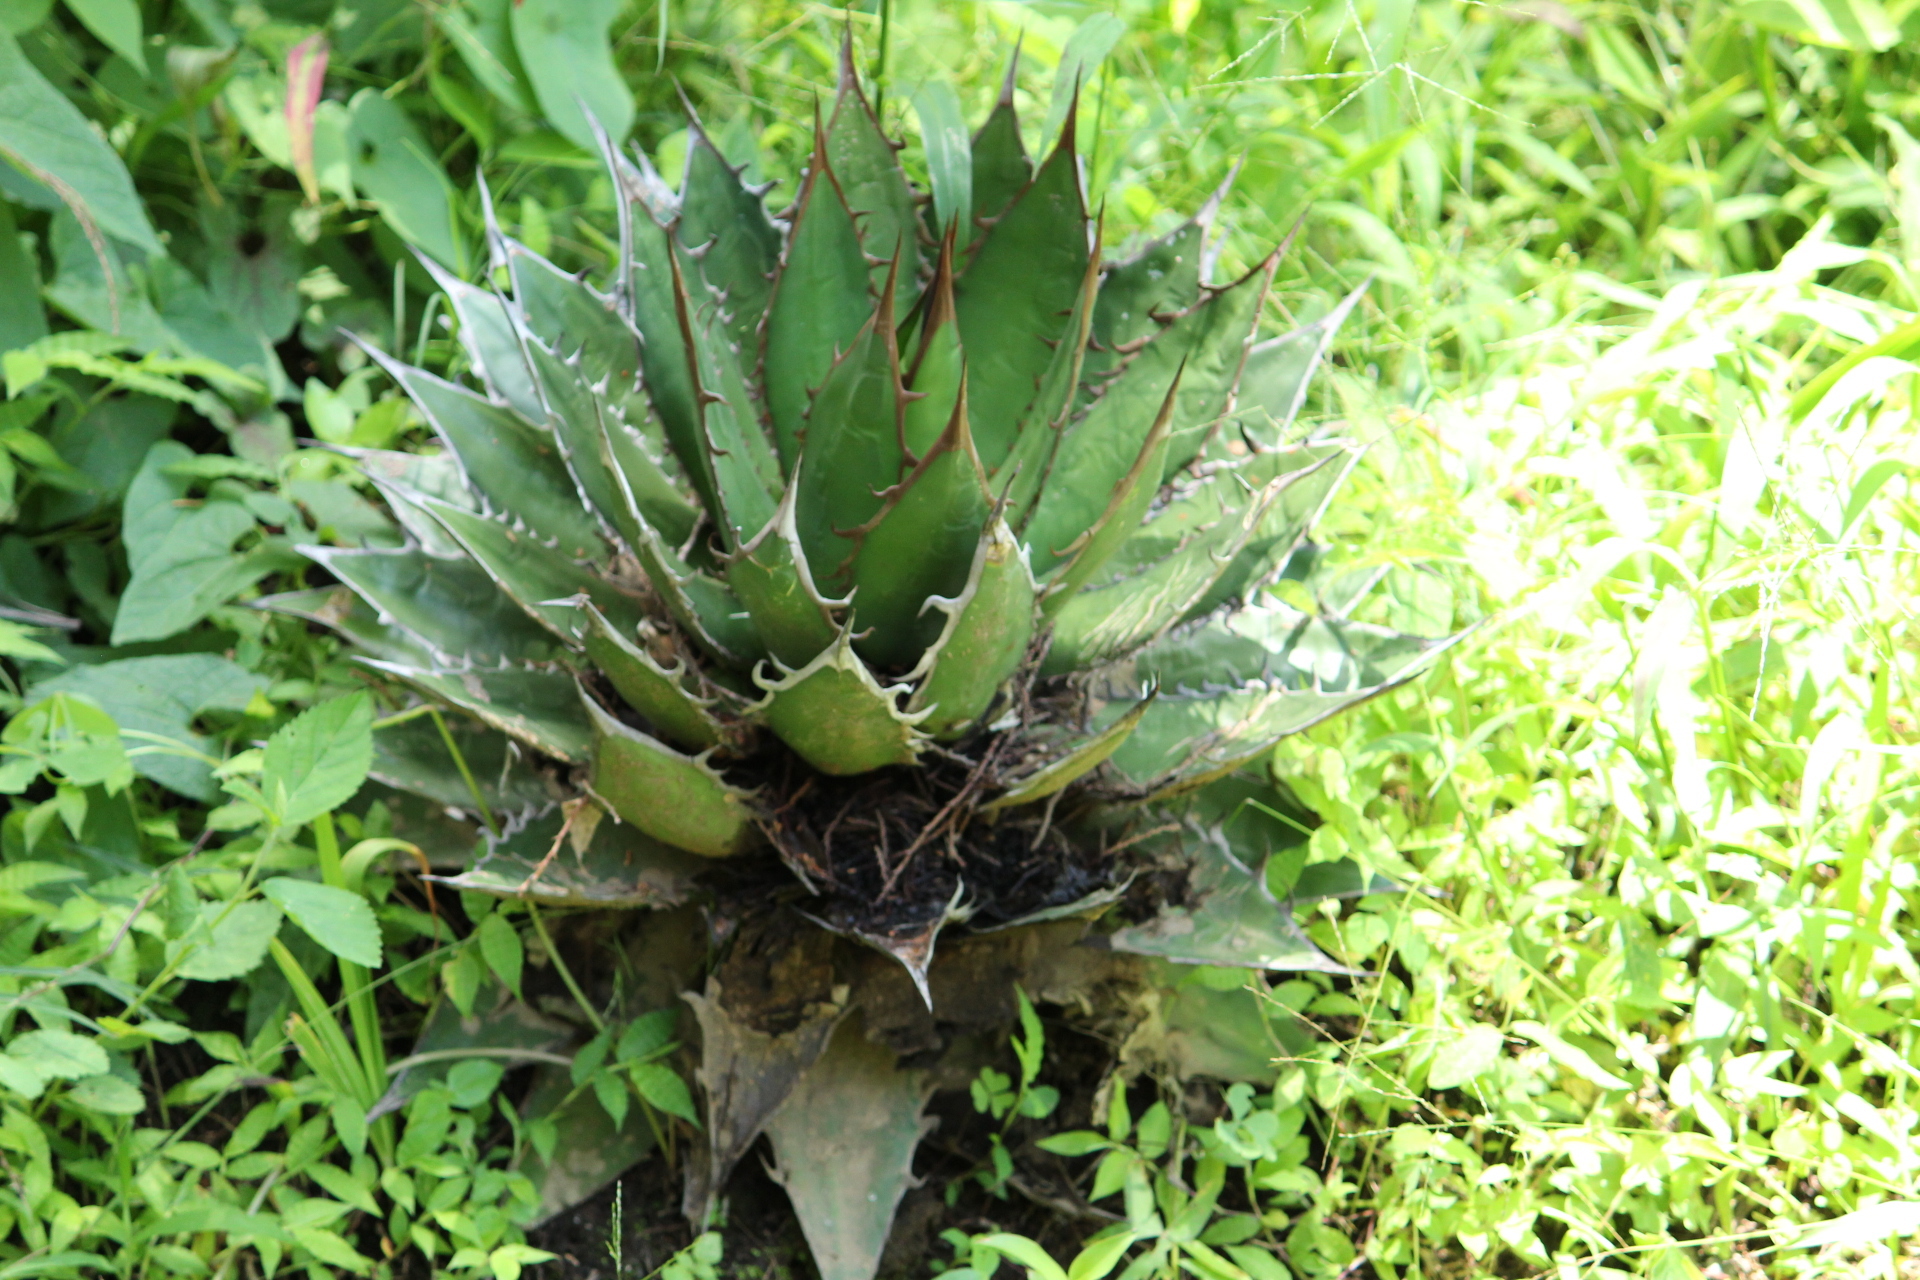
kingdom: Plantae
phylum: Tracheophyta
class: Liliopsida
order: Asparagales
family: Asparagaceae
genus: Agave
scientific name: Agave horrida
